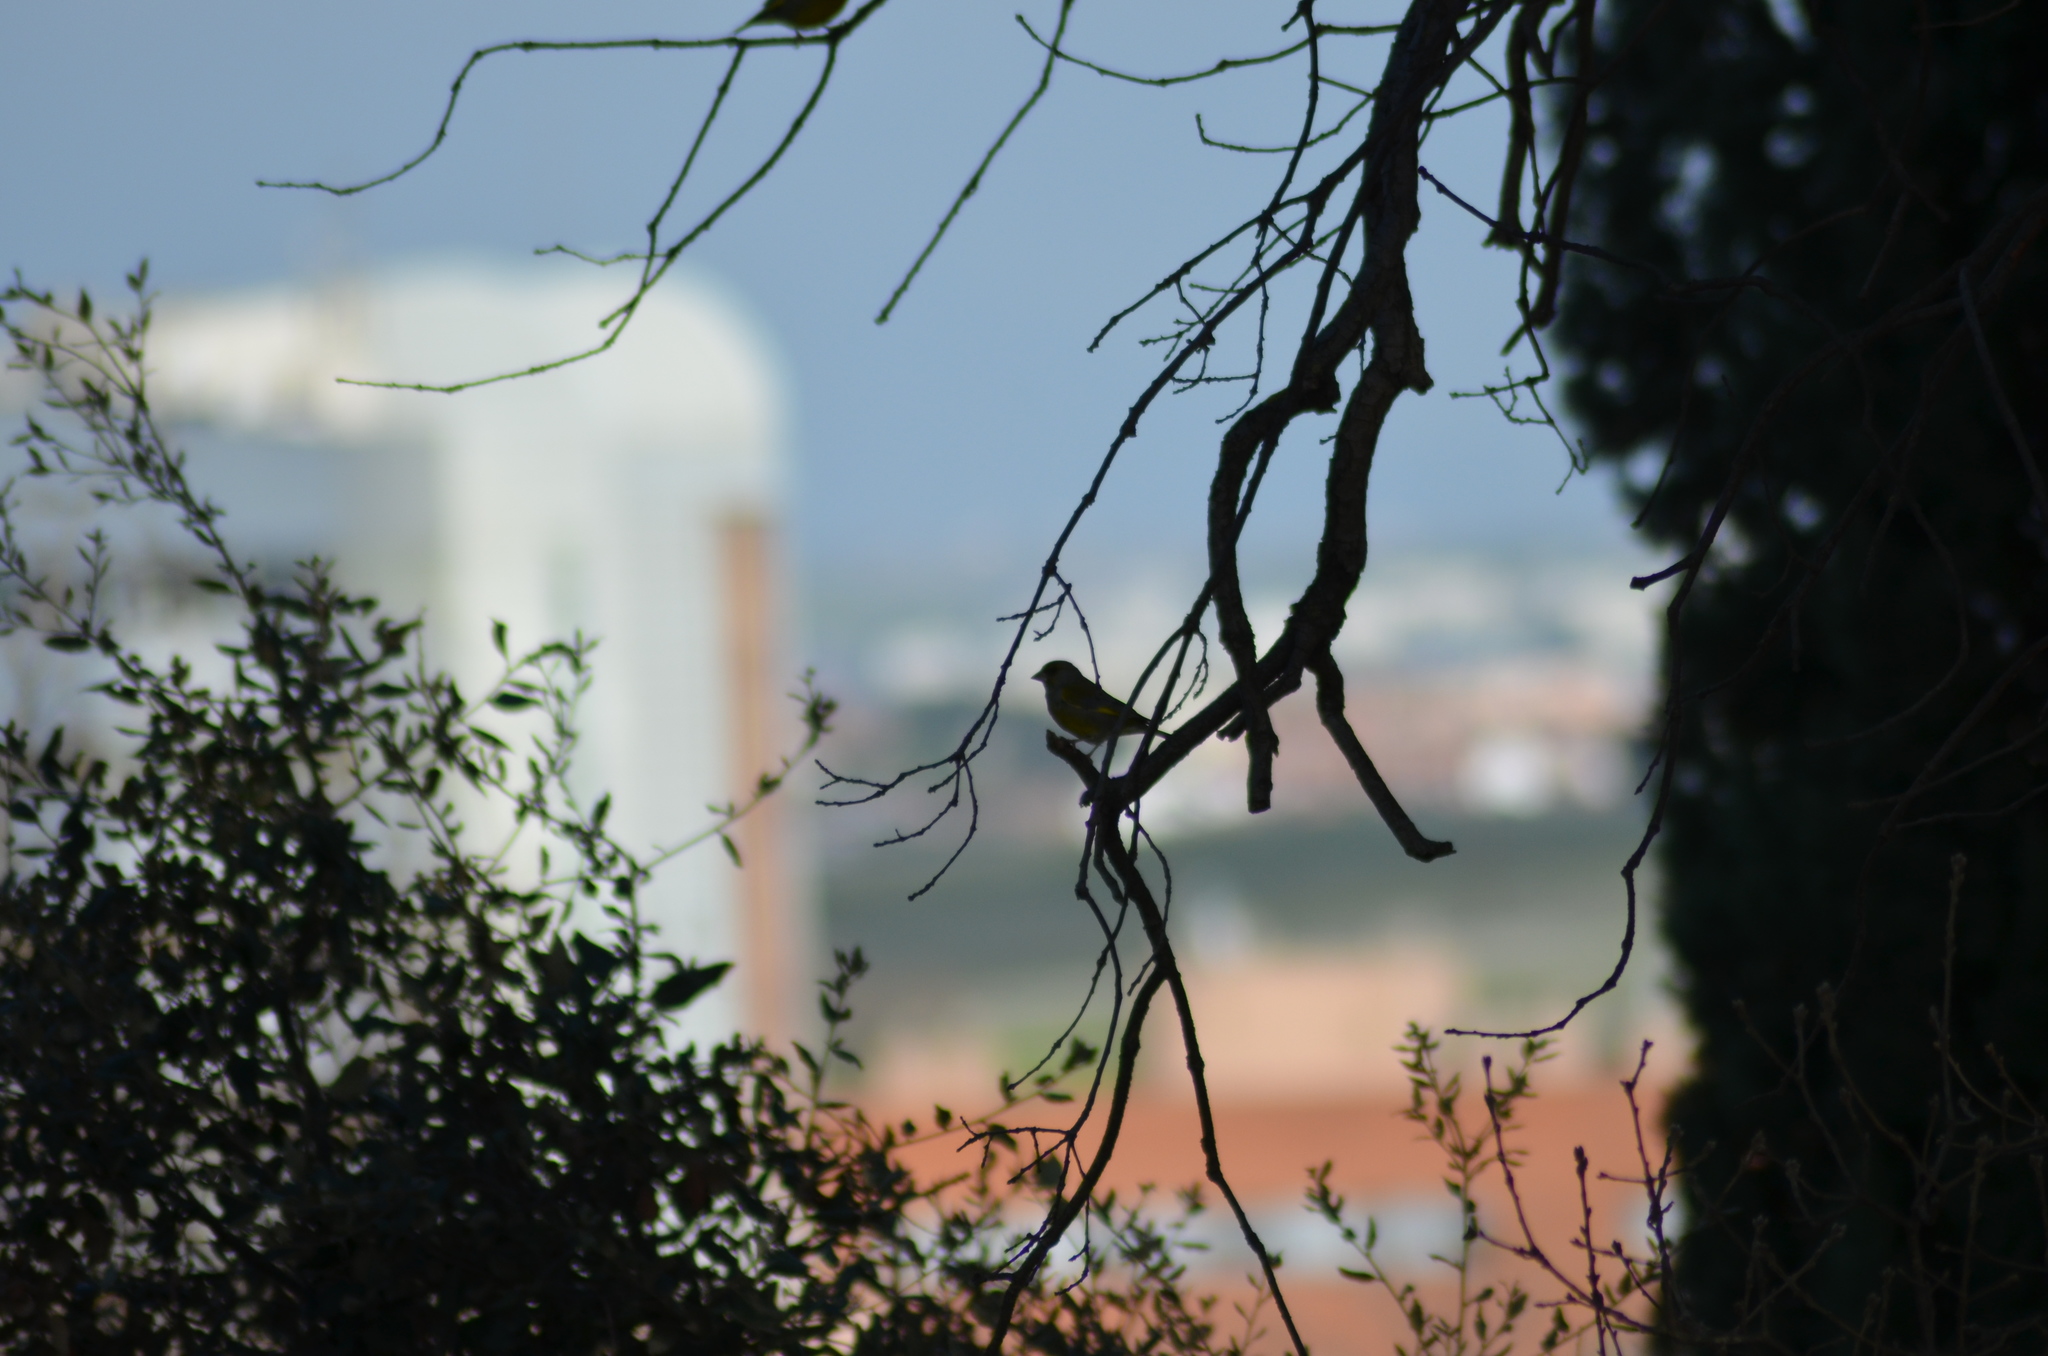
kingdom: Plantae
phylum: Tracheophyta
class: Liliopsida
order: Poales
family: Poaceae
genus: Chloris
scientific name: Chloris chloris
